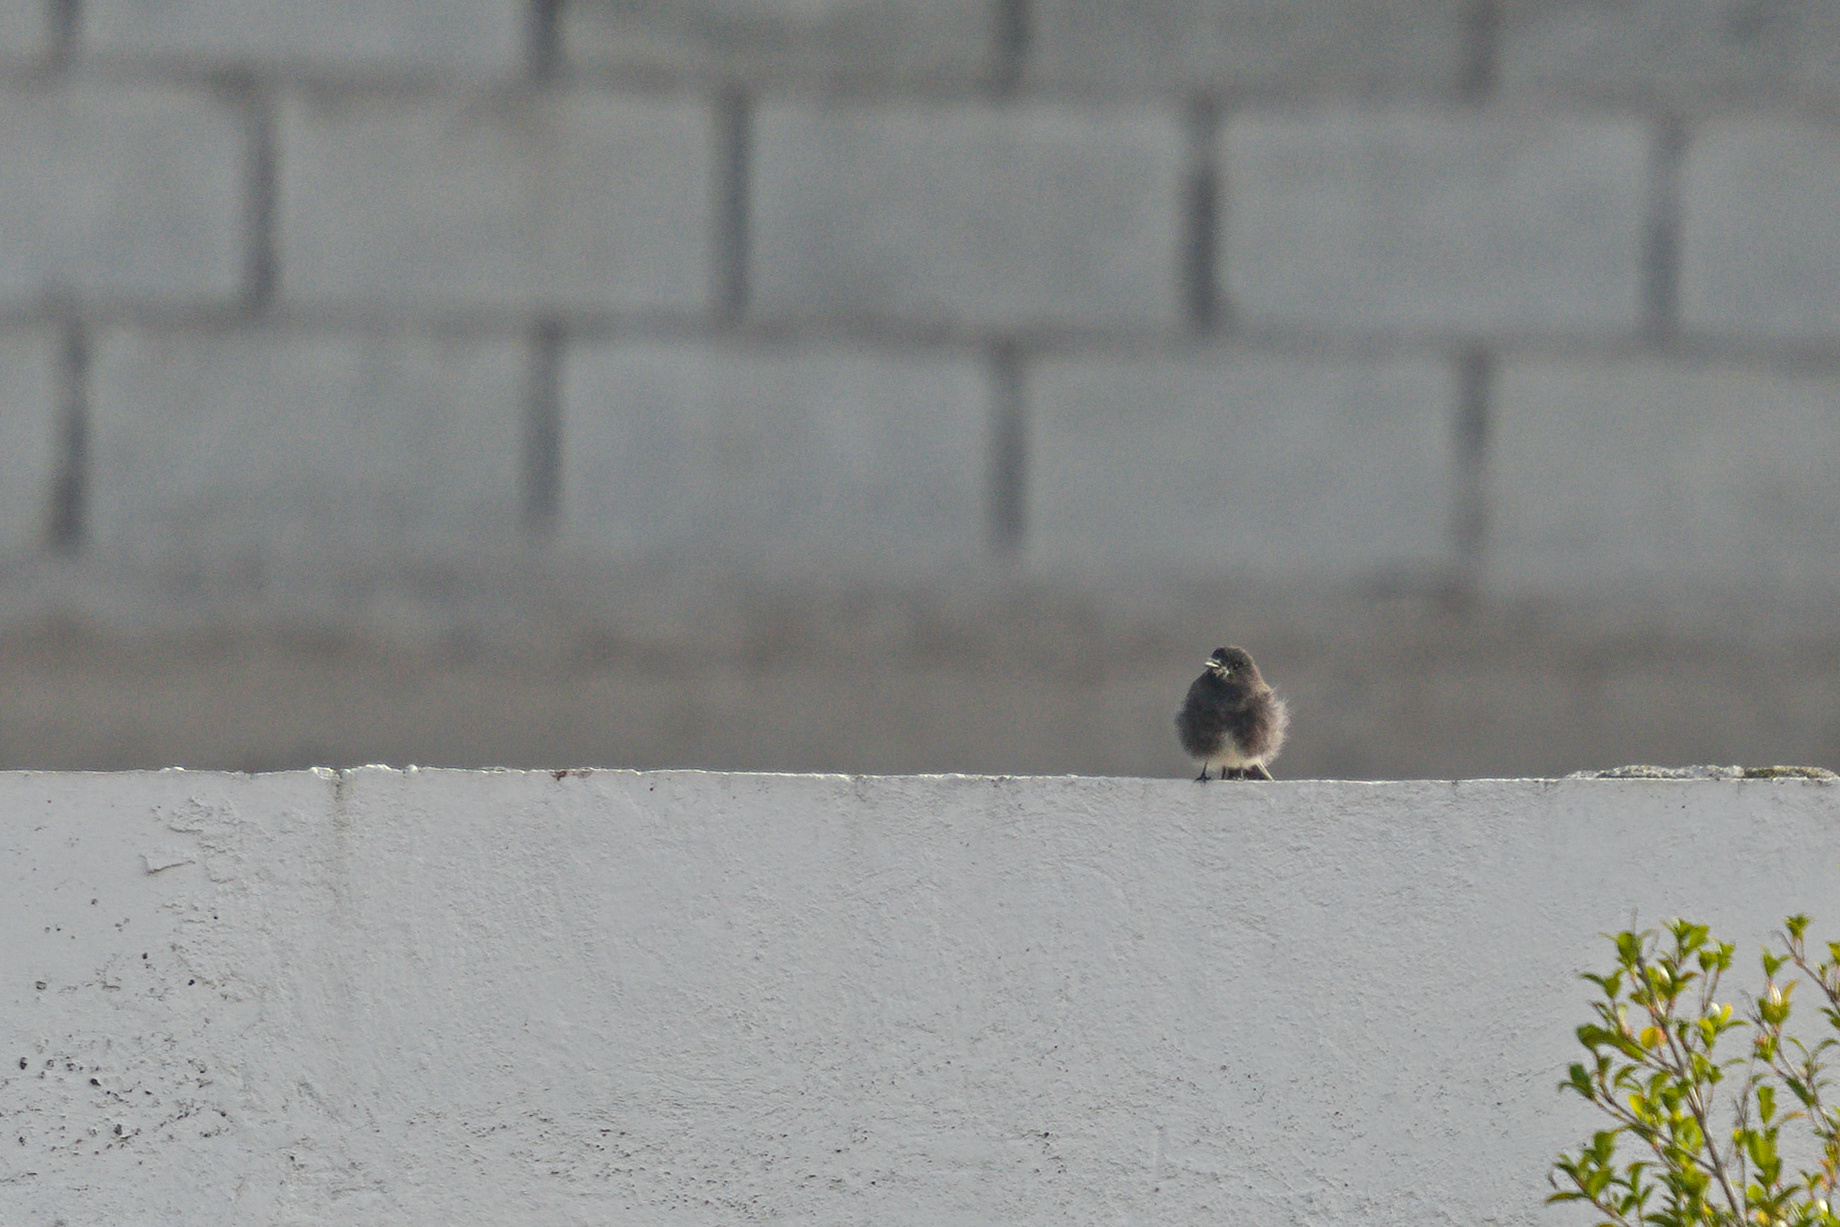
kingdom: Animalia
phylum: Chordata
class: Aves
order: Passeriformes
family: Tyrannidae
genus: Sayornis
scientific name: Sayornis nigricans
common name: Black phoebe
